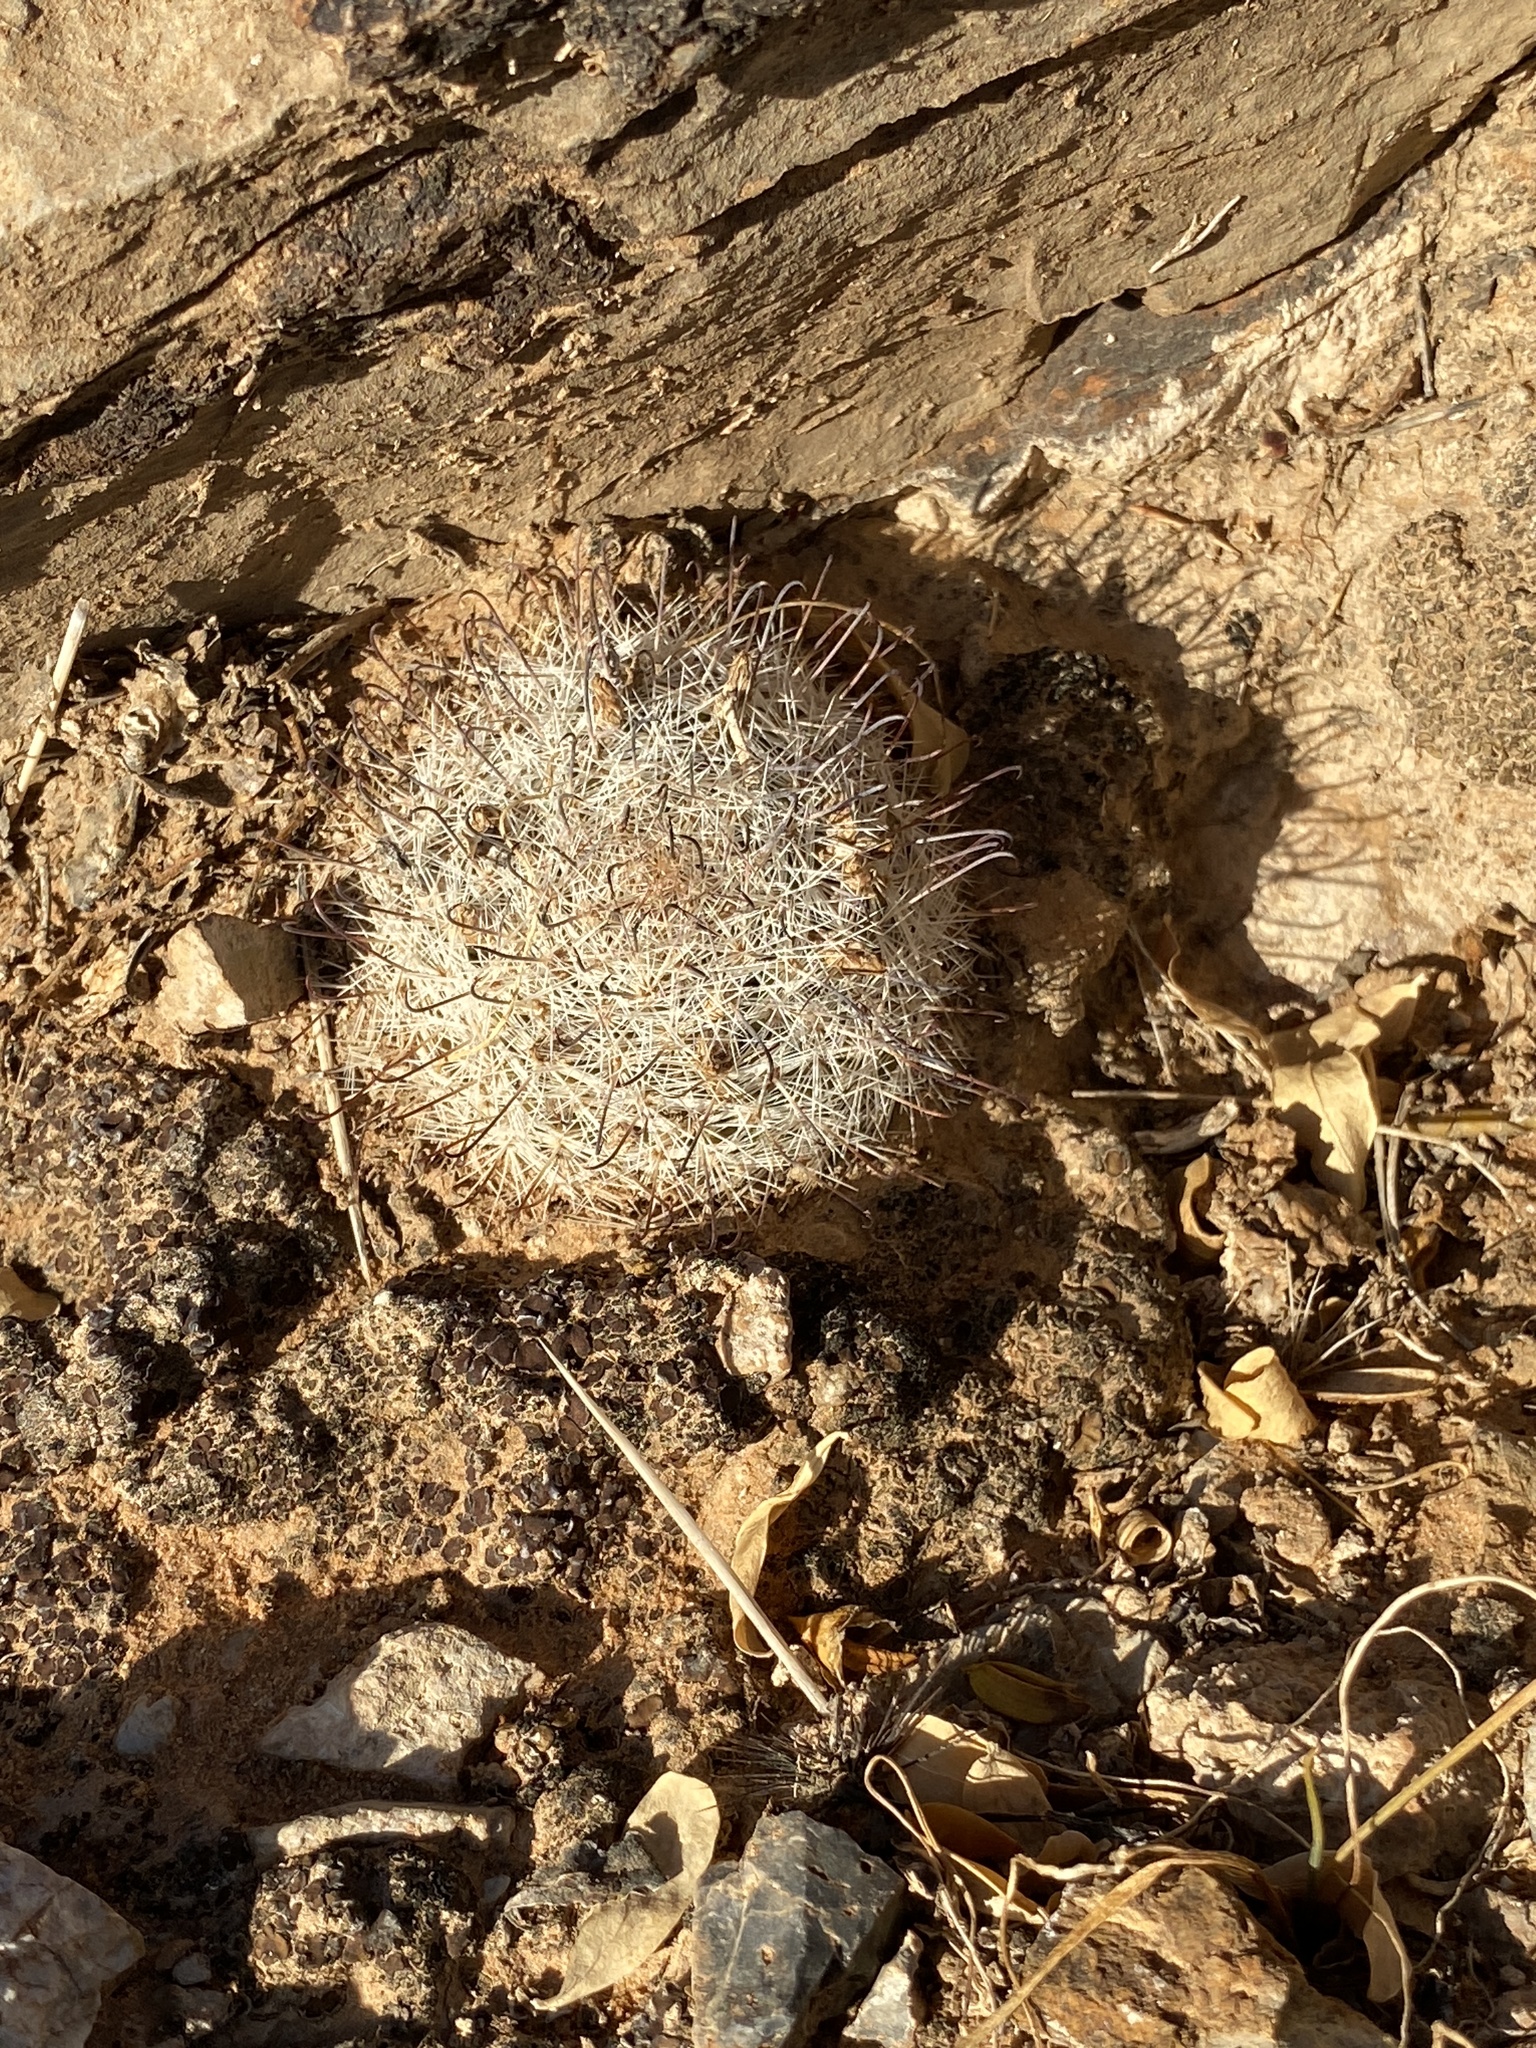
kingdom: Plantae
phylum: Tracheophyta
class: Magnoliopsida
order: Caryophyllales
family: Cactaceae
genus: Cochemiea
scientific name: Cochemiea grahamii
